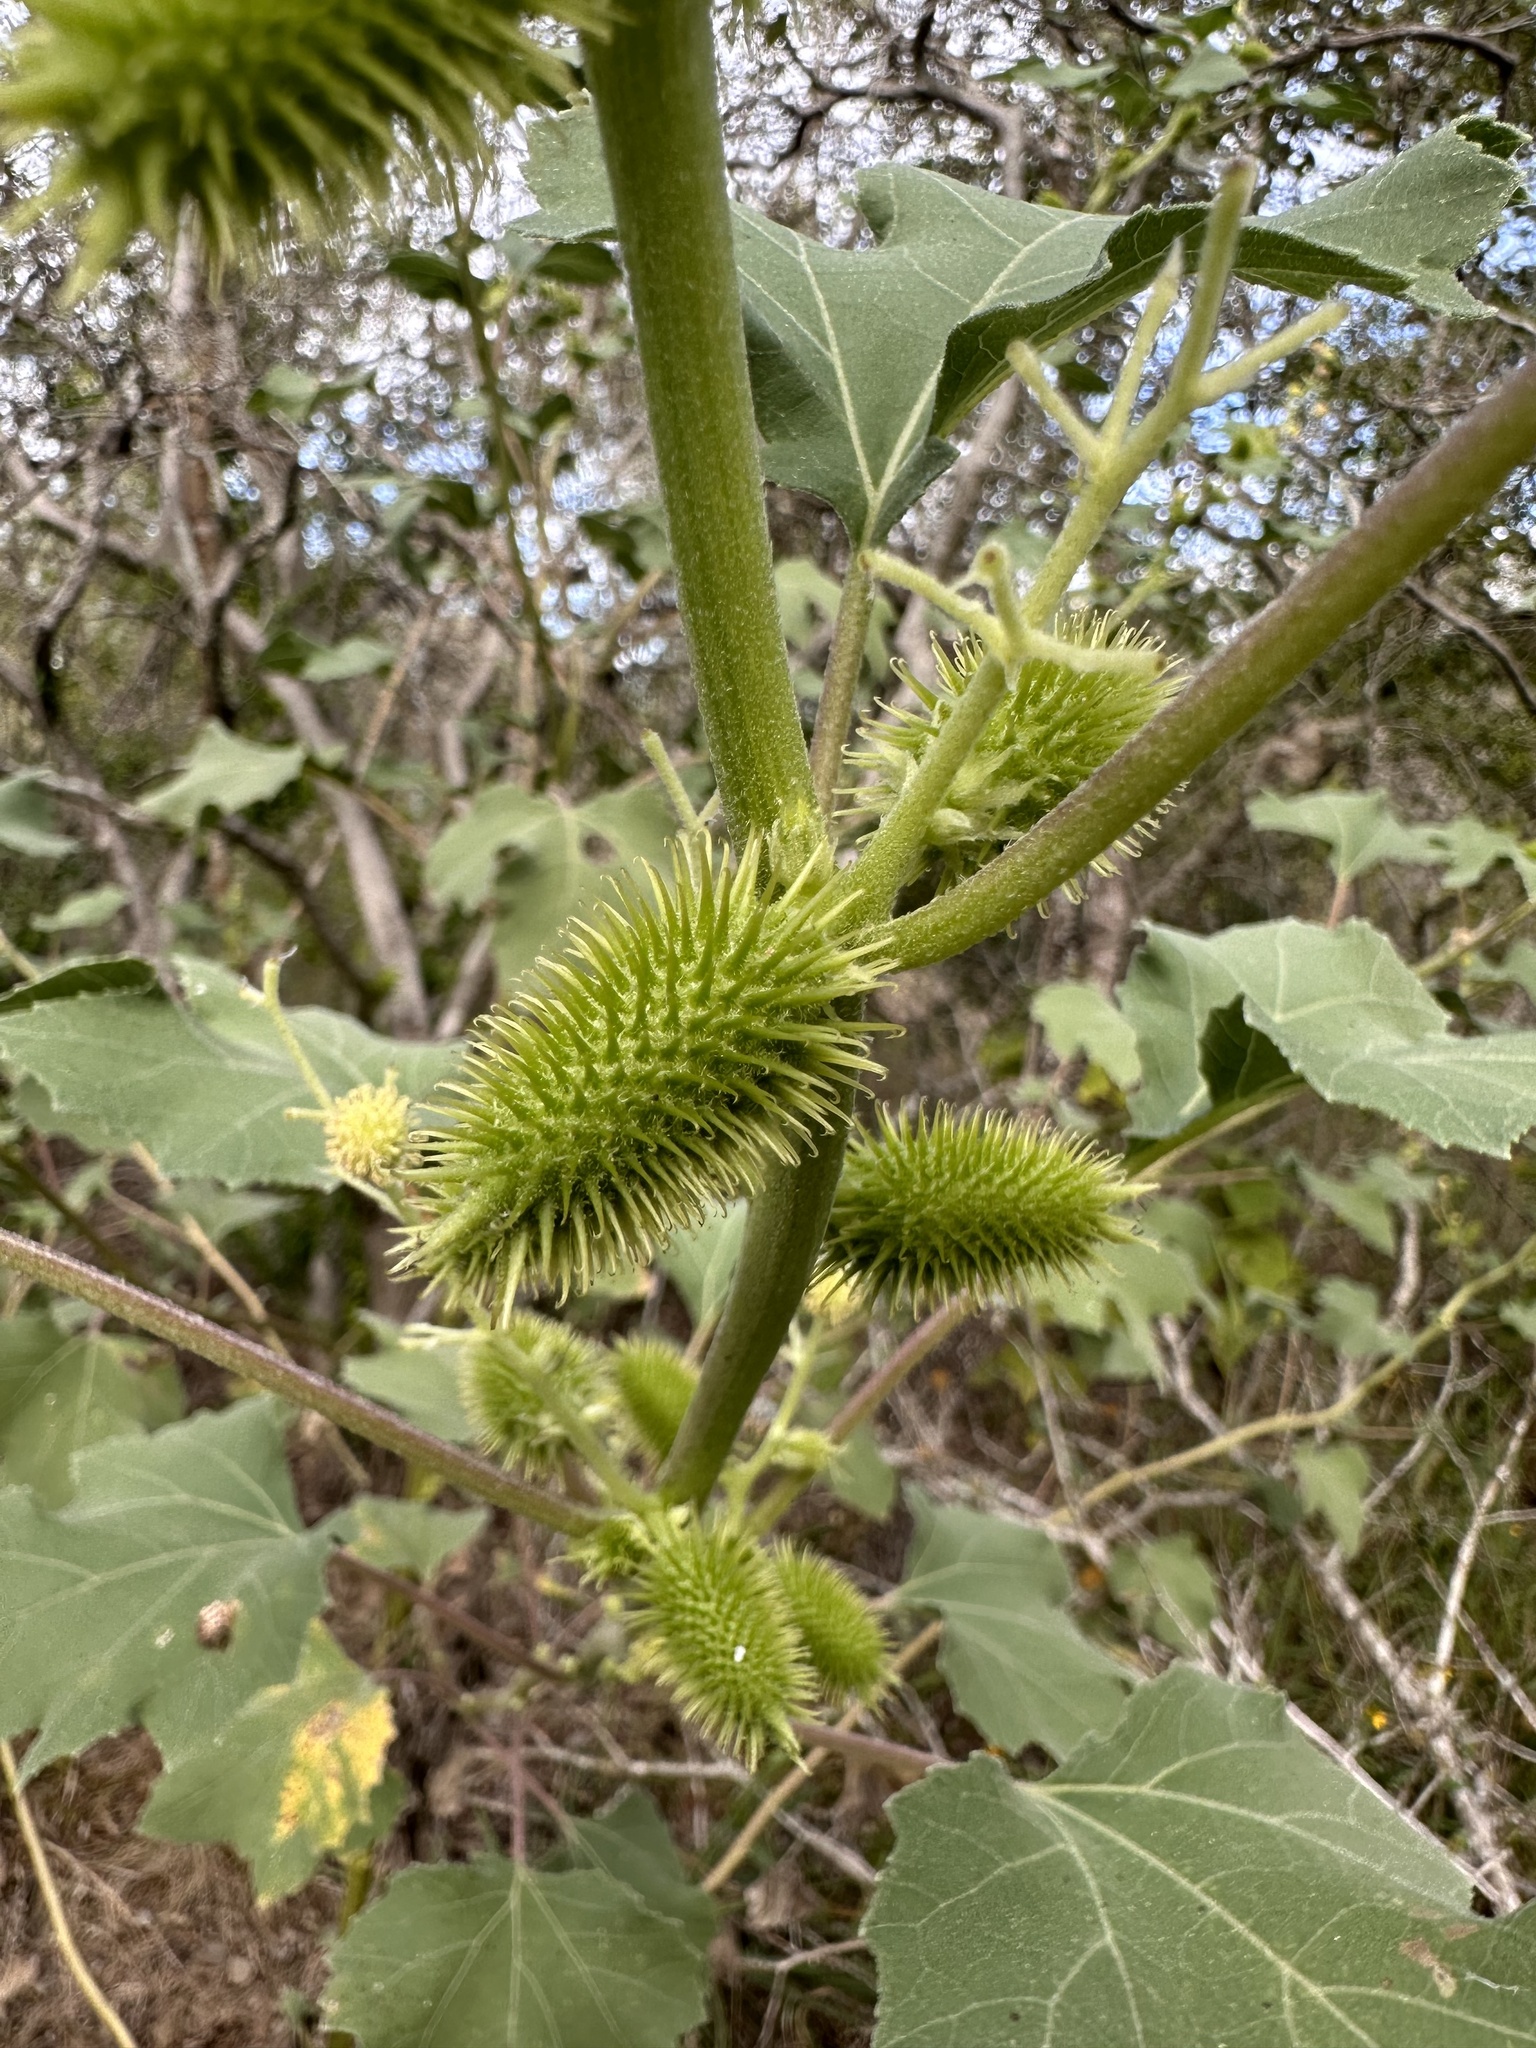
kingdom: Plantae
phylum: Tracheophyta
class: Magnoliopsida
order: Asterales
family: Asteraceae
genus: Xanthium
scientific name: Xanthium strumarium
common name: Rough cocklebur
